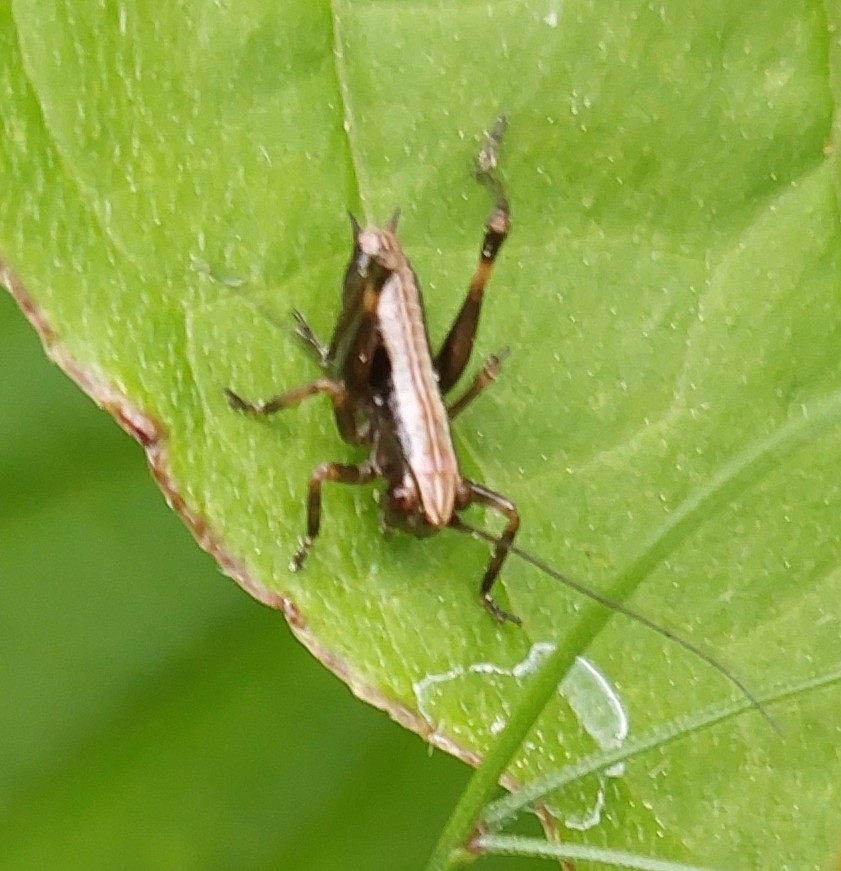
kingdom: Animalia
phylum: Arthropoda
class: Insecta
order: Orthoptera
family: Tettigoniidae
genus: Pholidoptera
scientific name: Pholidoptera griseoaptera
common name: Dark bush-cricket
